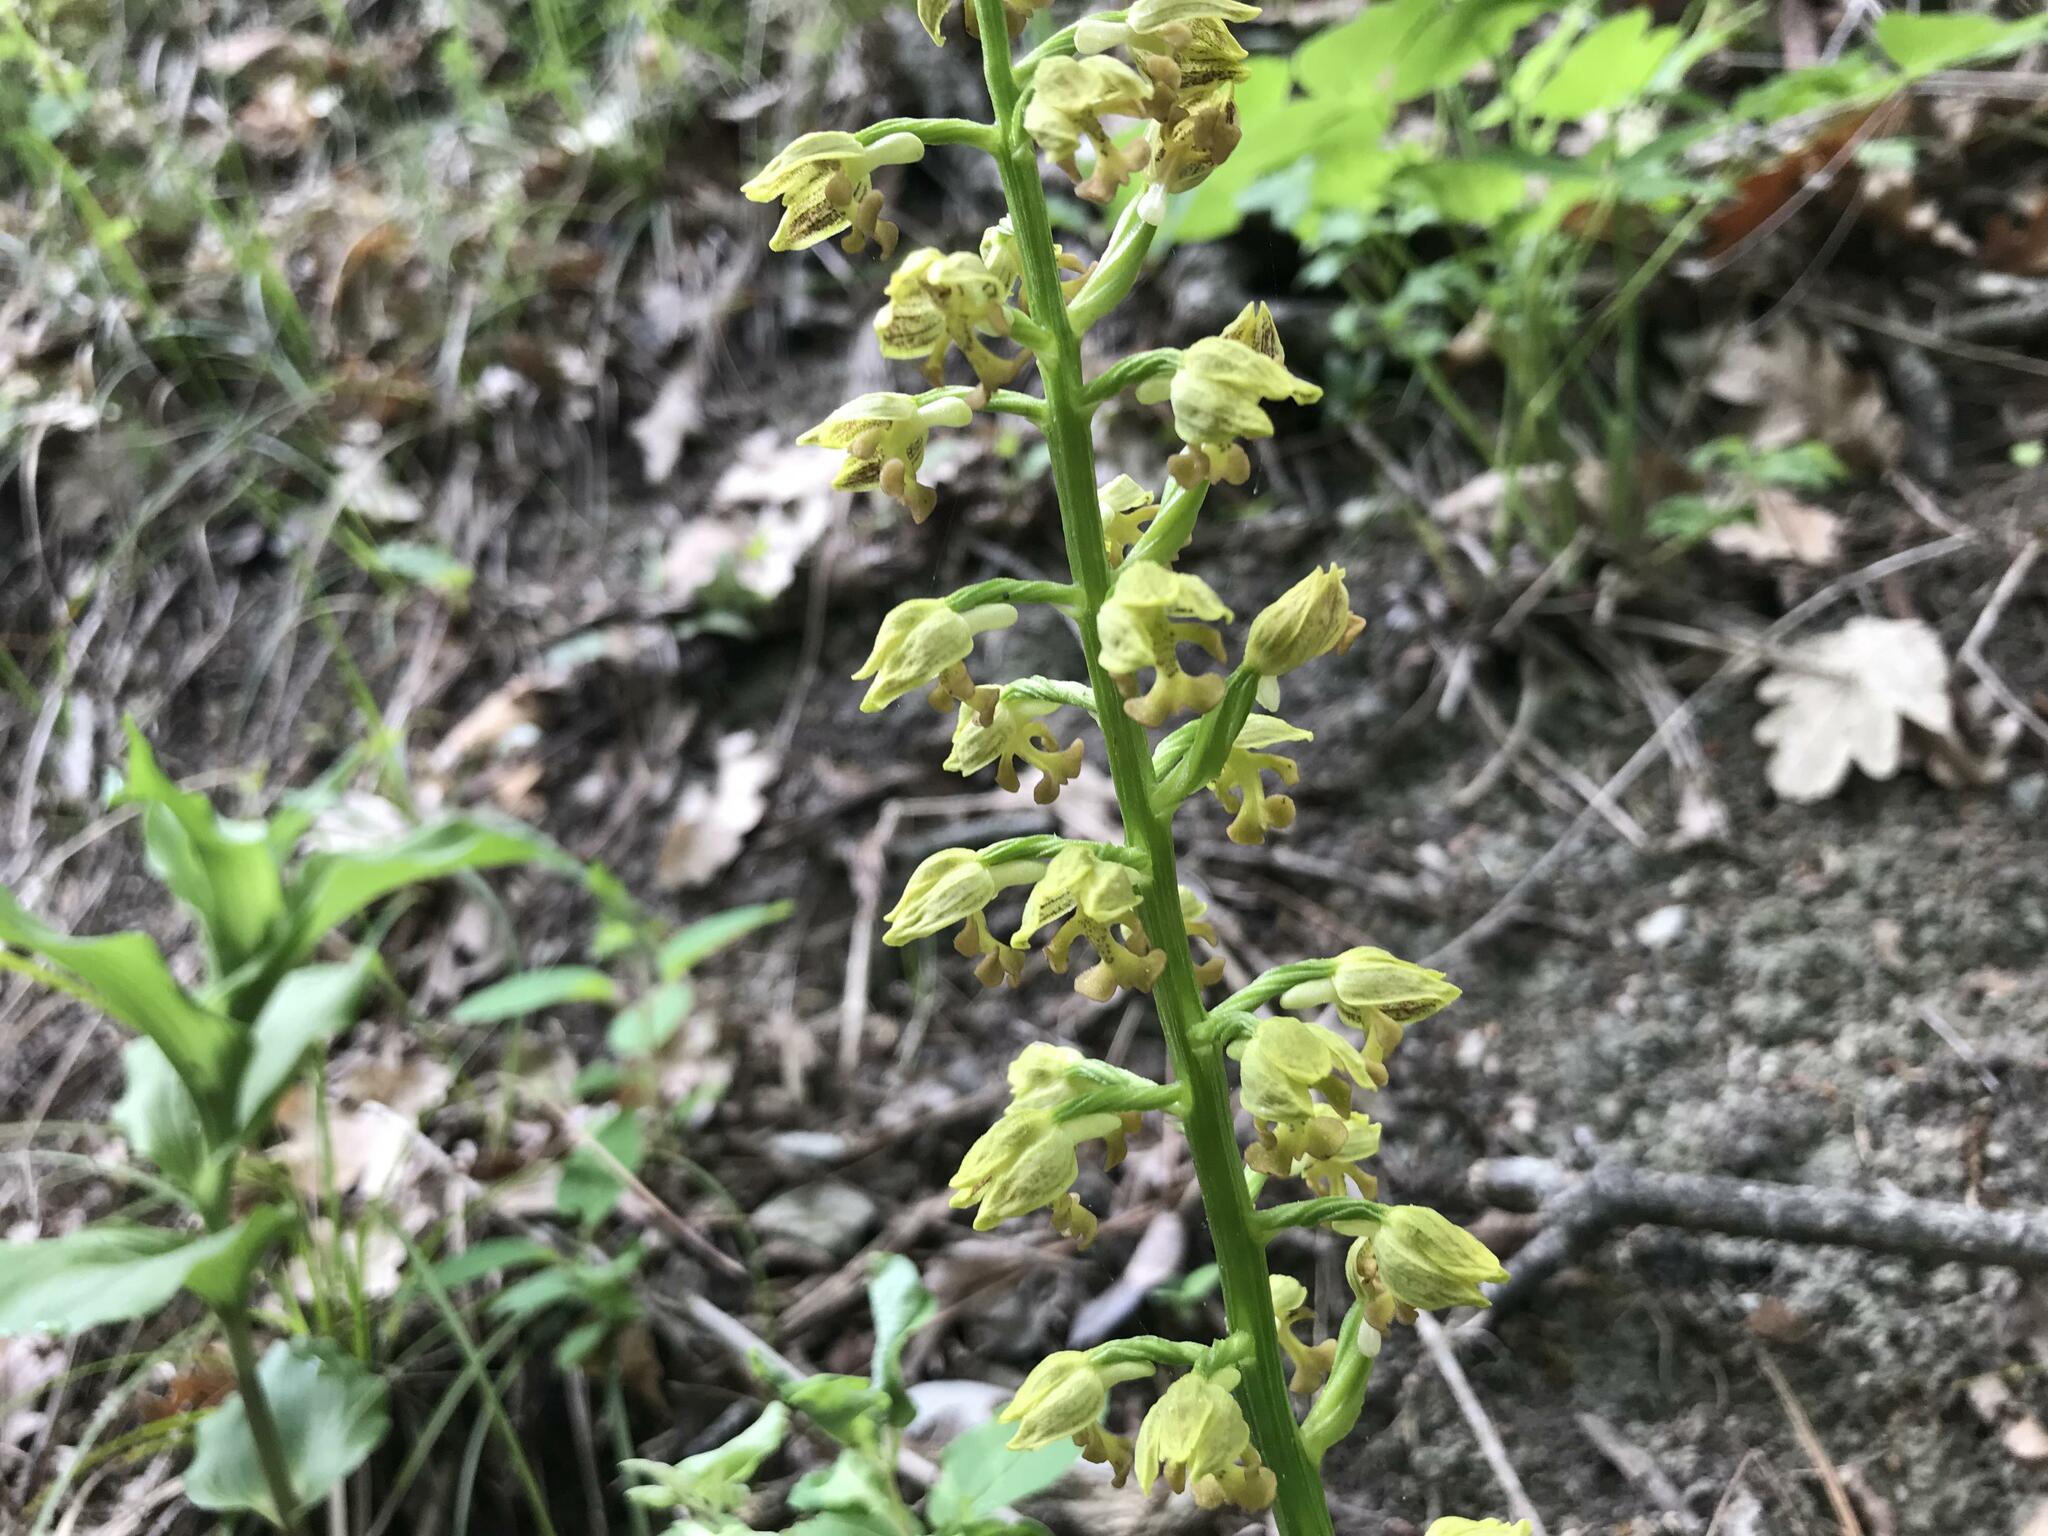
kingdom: Plantae
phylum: Tracheophyta
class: Liliopsida
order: Asparagales
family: Orchidaceae
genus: Orchis
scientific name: Orchis punctulata
